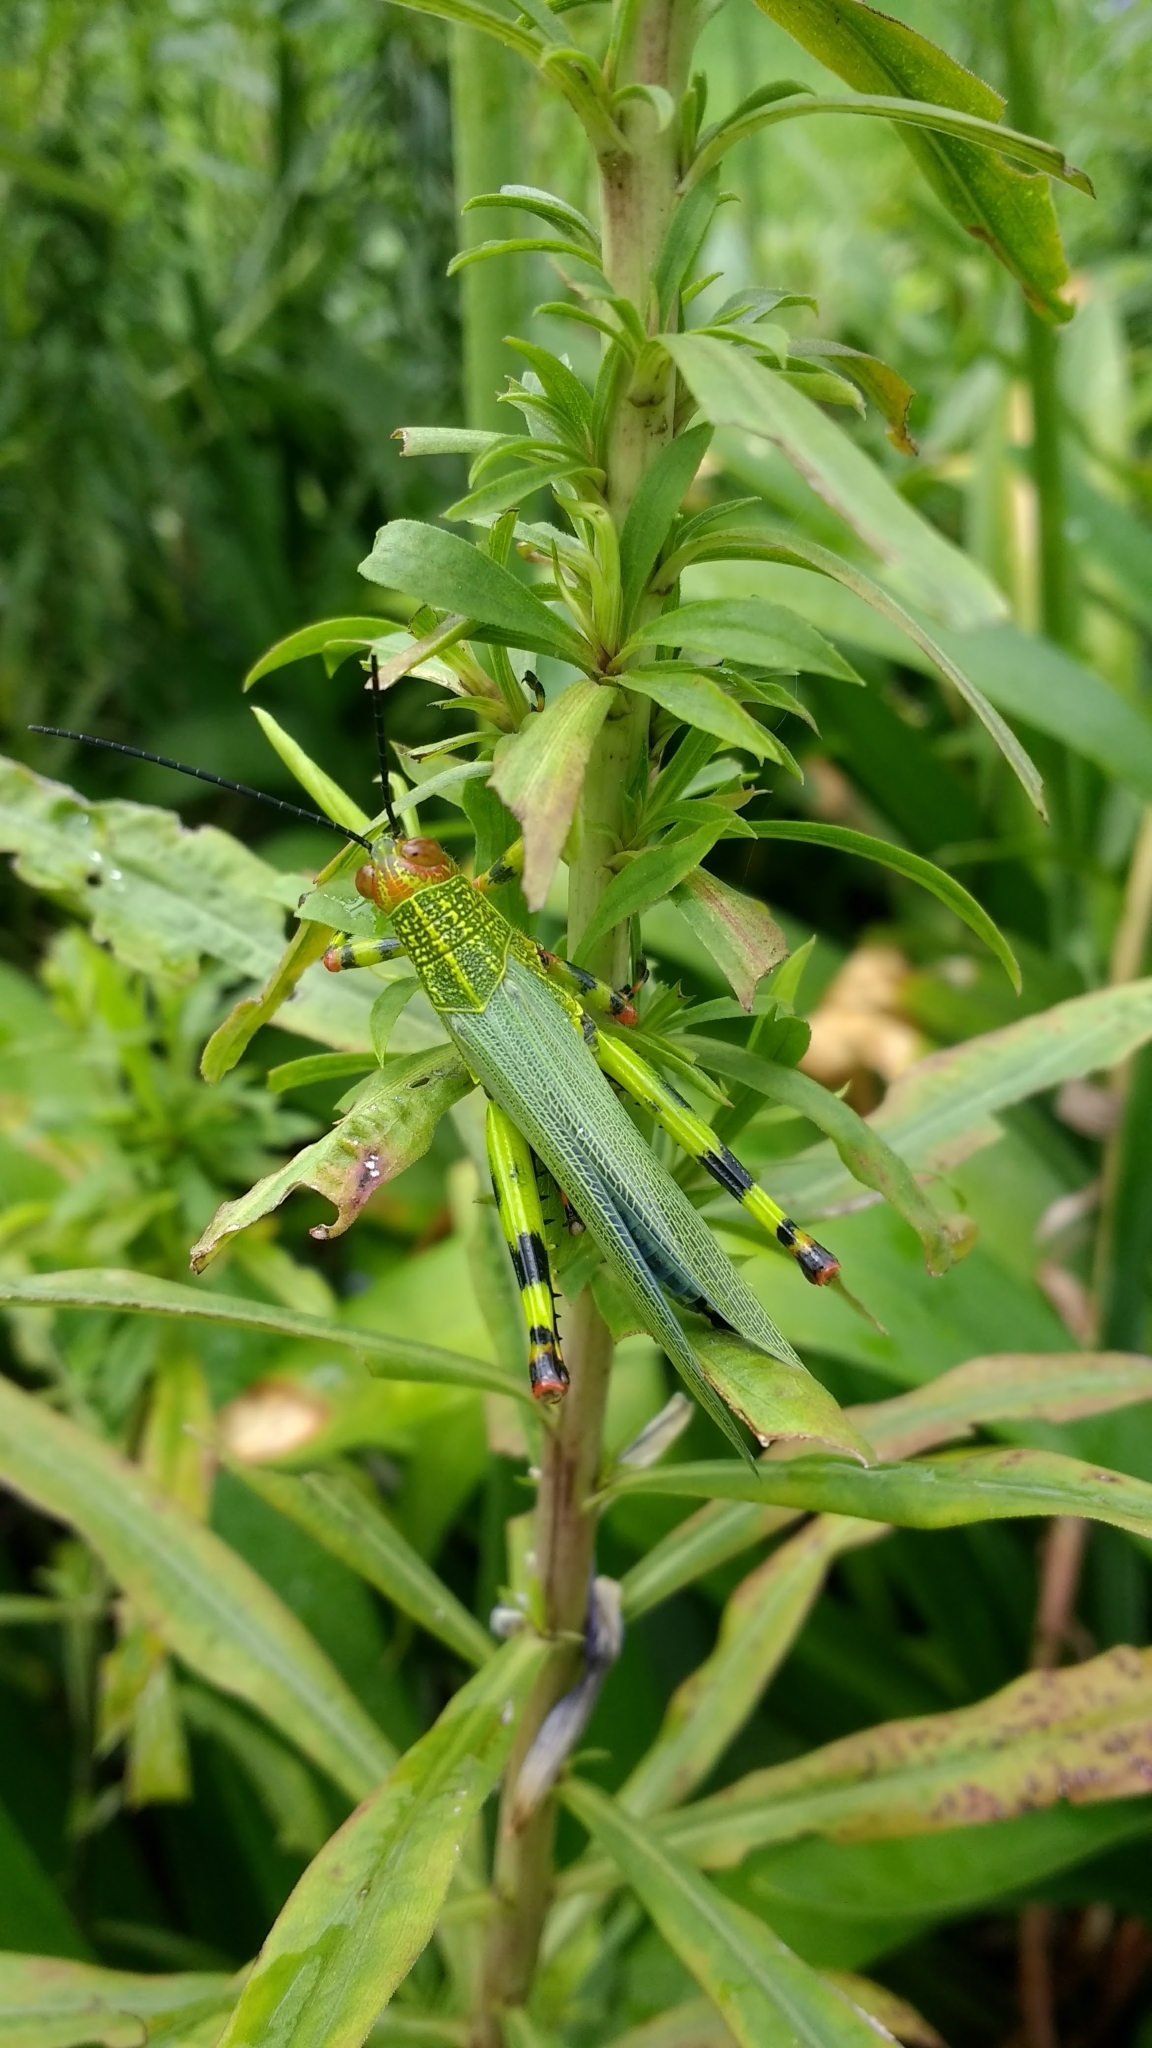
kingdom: Animalia
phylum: Arthropoda
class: Insecta
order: Orthoptera
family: Romaleidae
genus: Zoniopoda
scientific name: Zoniopoda tarsata
